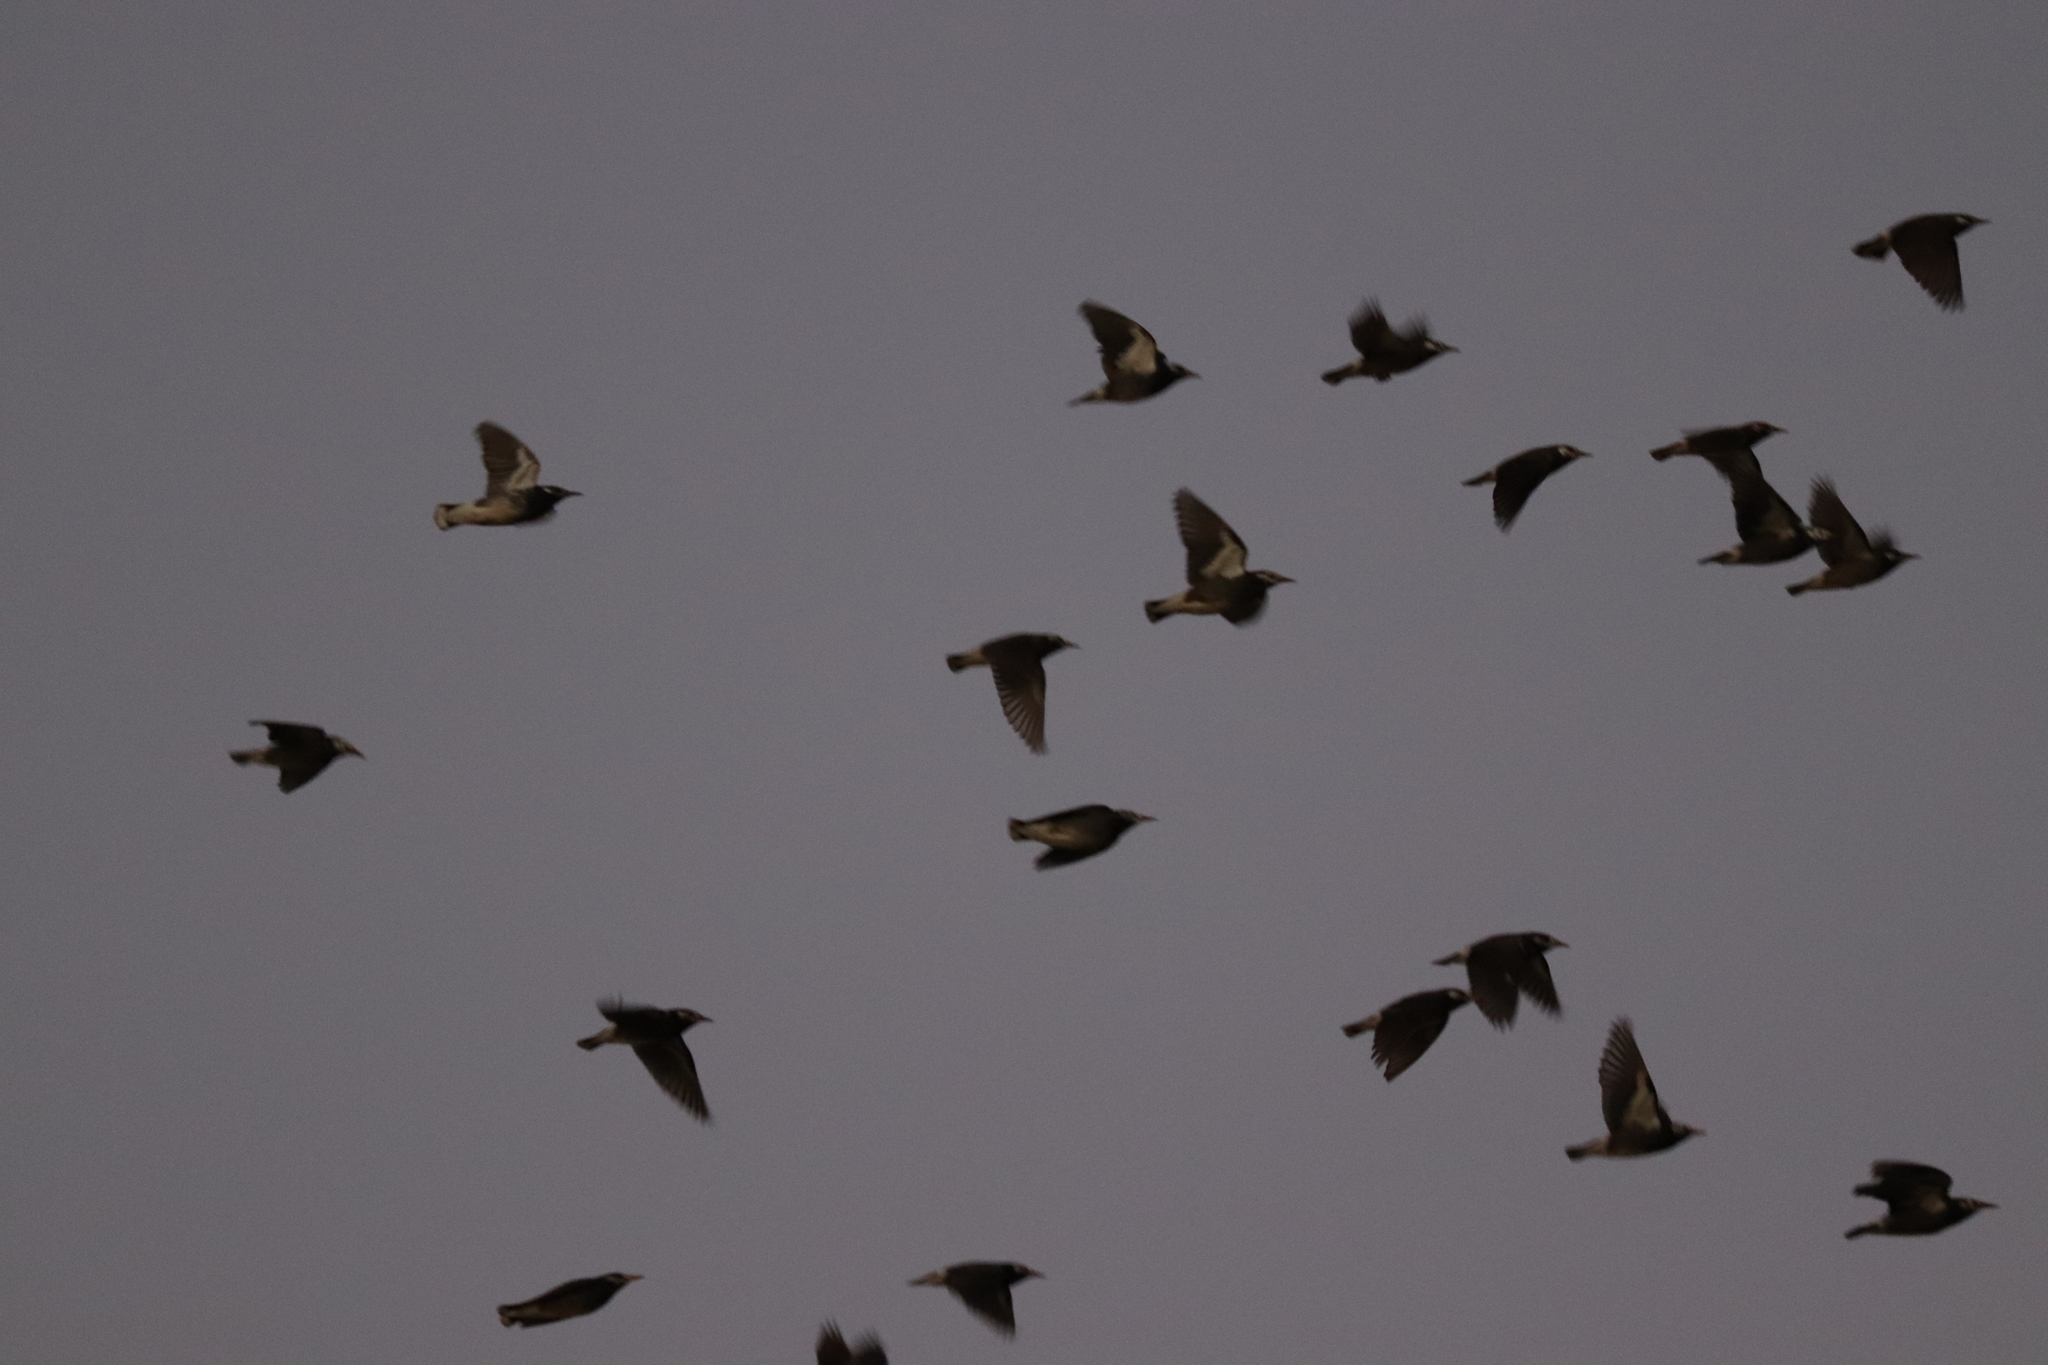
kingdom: Animalia
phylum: Chordata
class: Aves
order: Passeriformes
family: Sturnidae
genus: Spodiopsar
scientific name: Spodiopsar cineraceus
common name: White-cheeked starling
